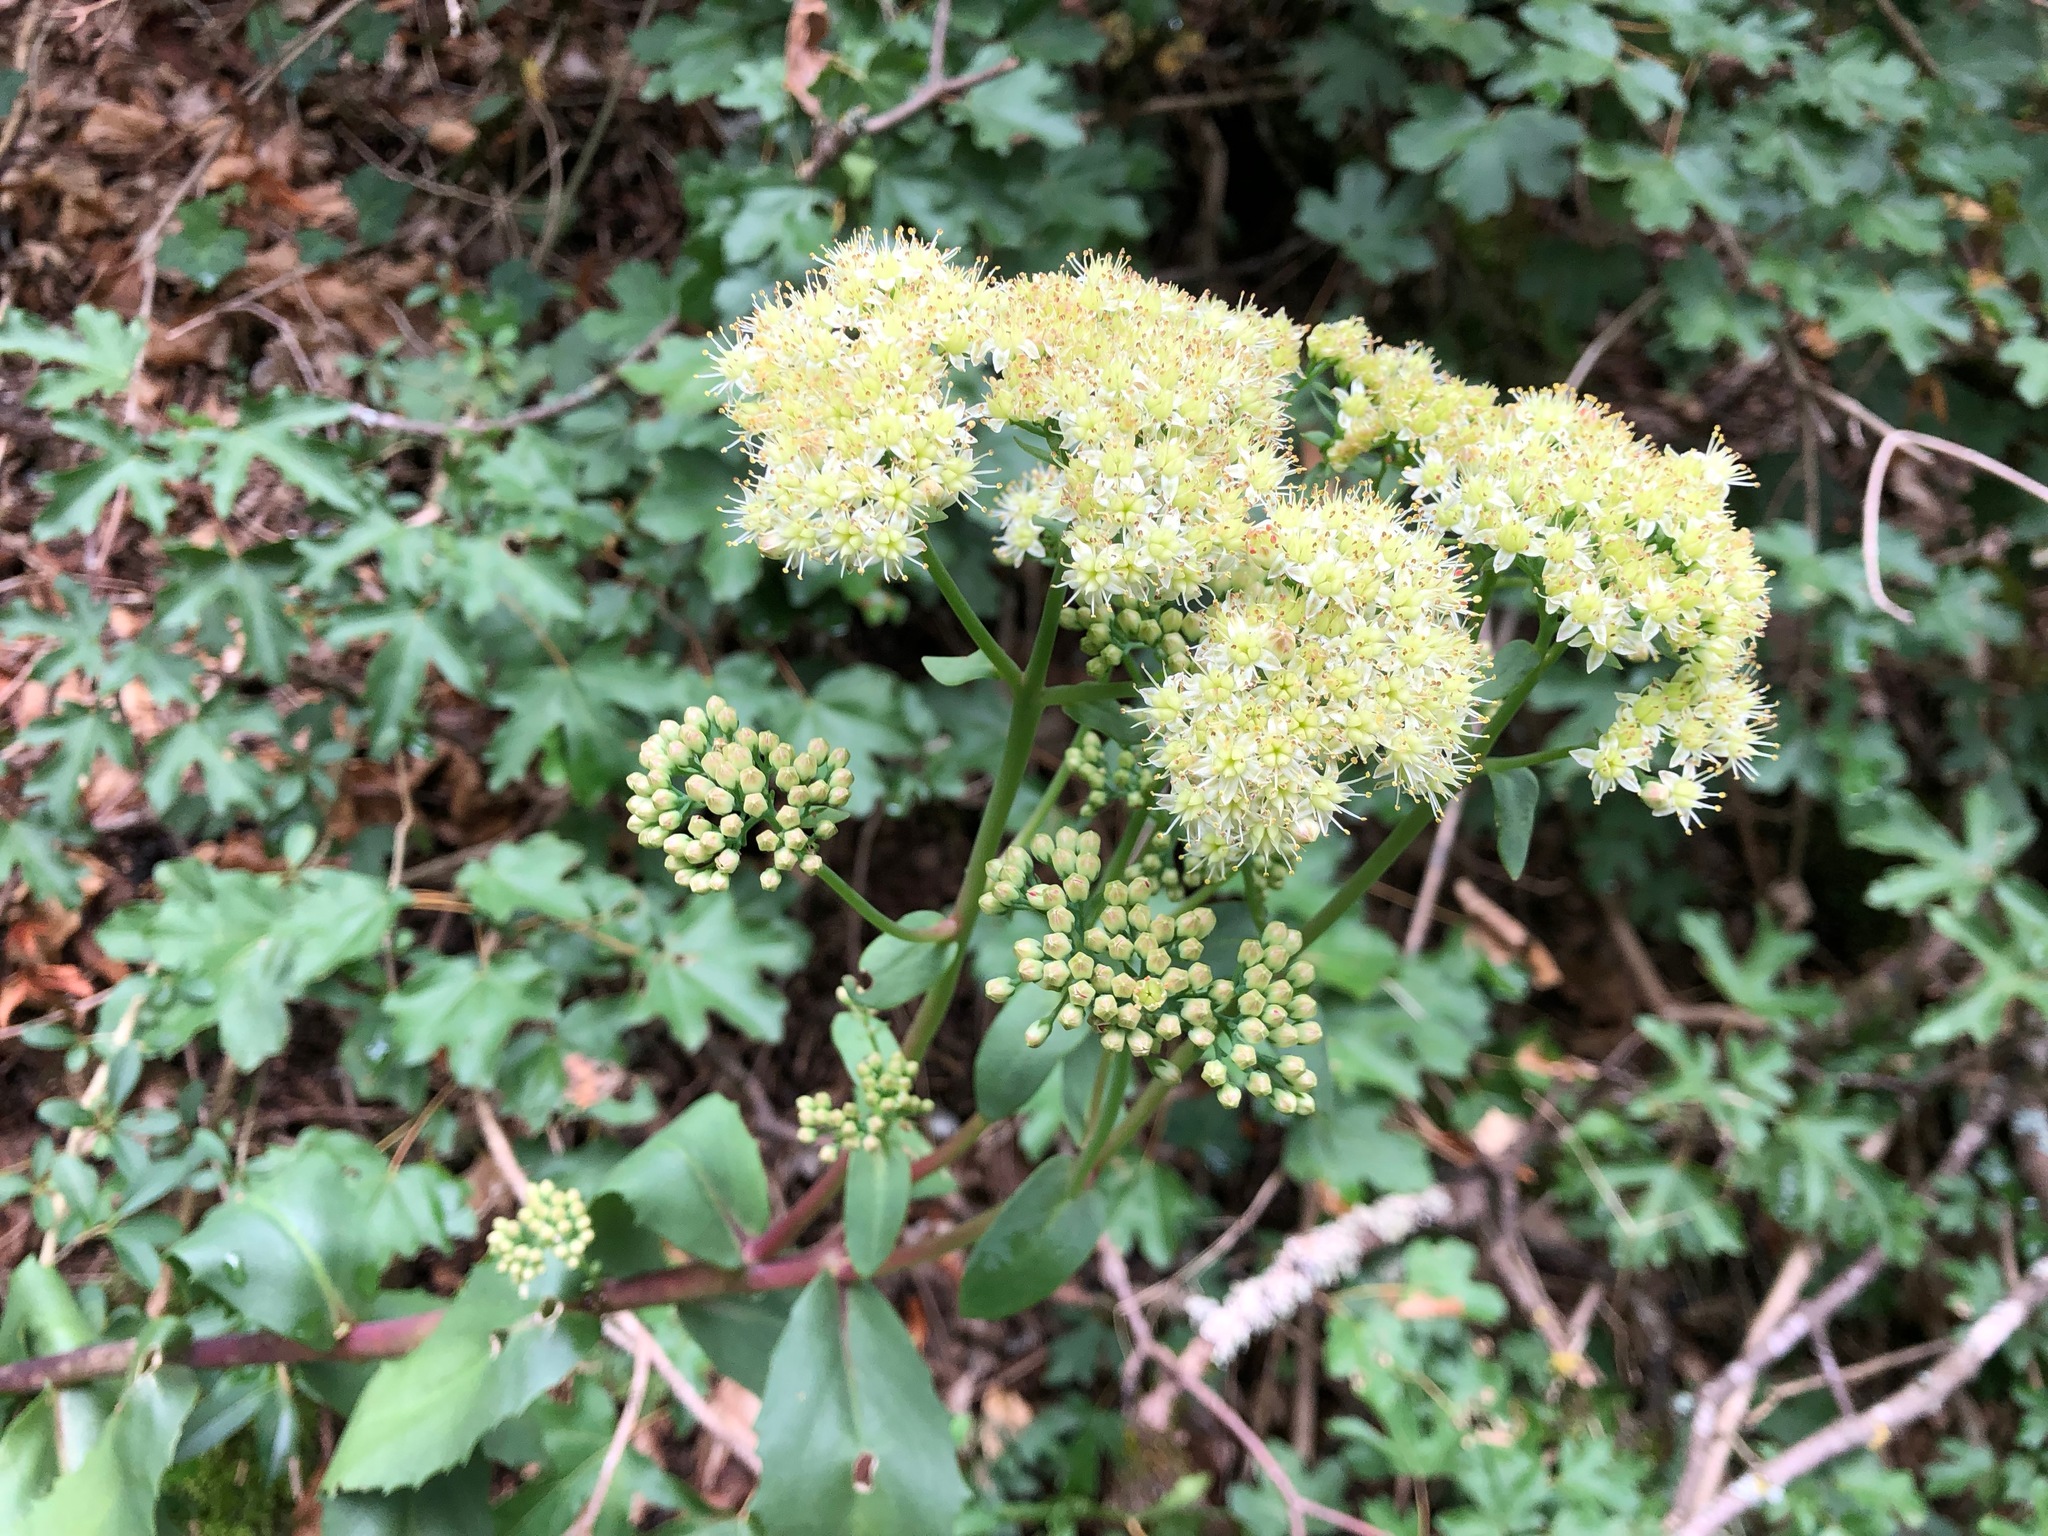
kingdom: Plantae
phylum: Tracheophyta
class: Magnoliopsida
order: Saxifragales
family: Crassulaceae
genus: Hylotelephium
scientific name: Hylotelephium maximum
